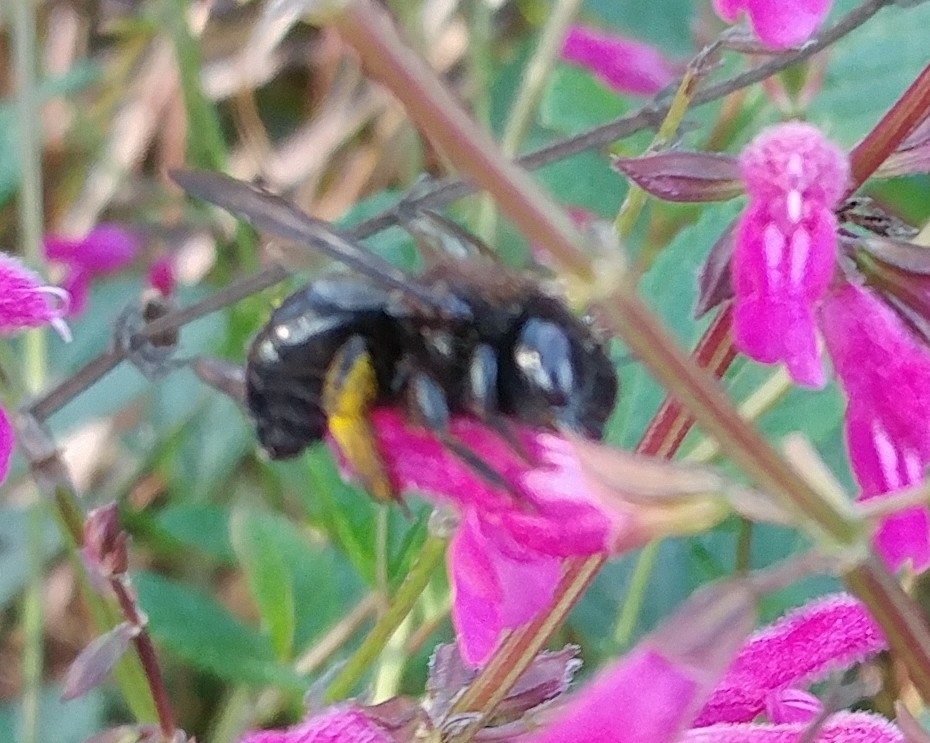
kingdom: Animalia
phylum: Arthropoda
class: Insecta
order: Hymenoptera
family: Apidae
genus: Xylocopa
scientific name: Xylocopa tabaniformis
